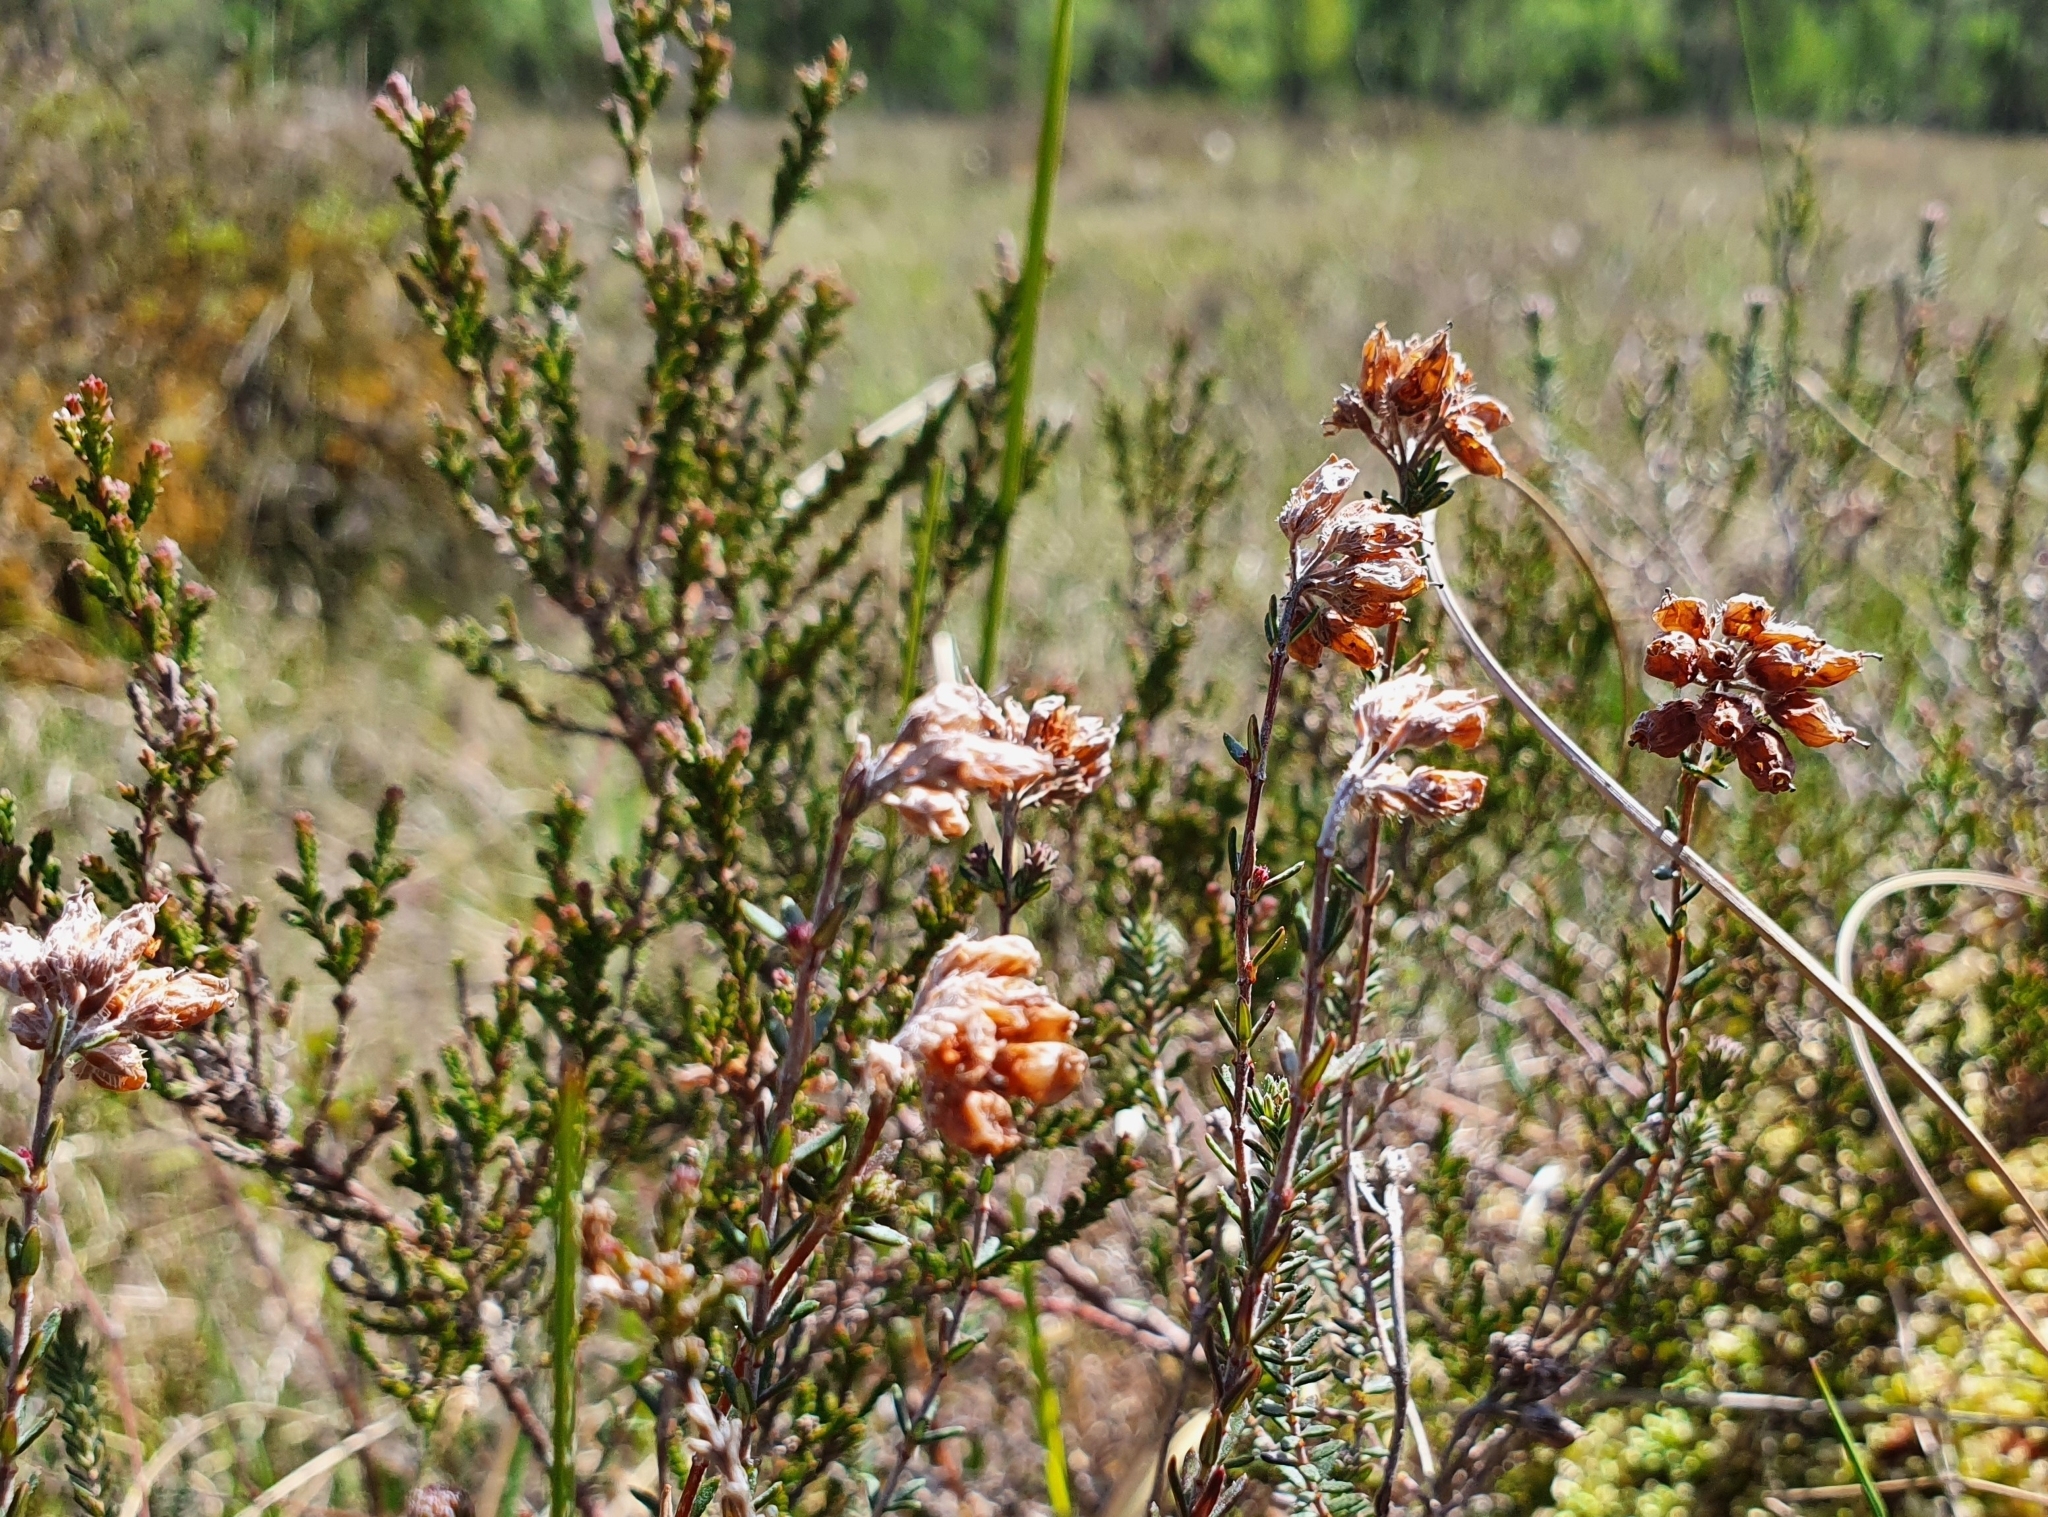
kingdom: Plantae
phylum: Tracheophyta
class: Magnoliopsida
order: Ericales
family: Ericaceae
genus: Erica
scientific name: Erica tetralix
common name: Cross-leaved heath
